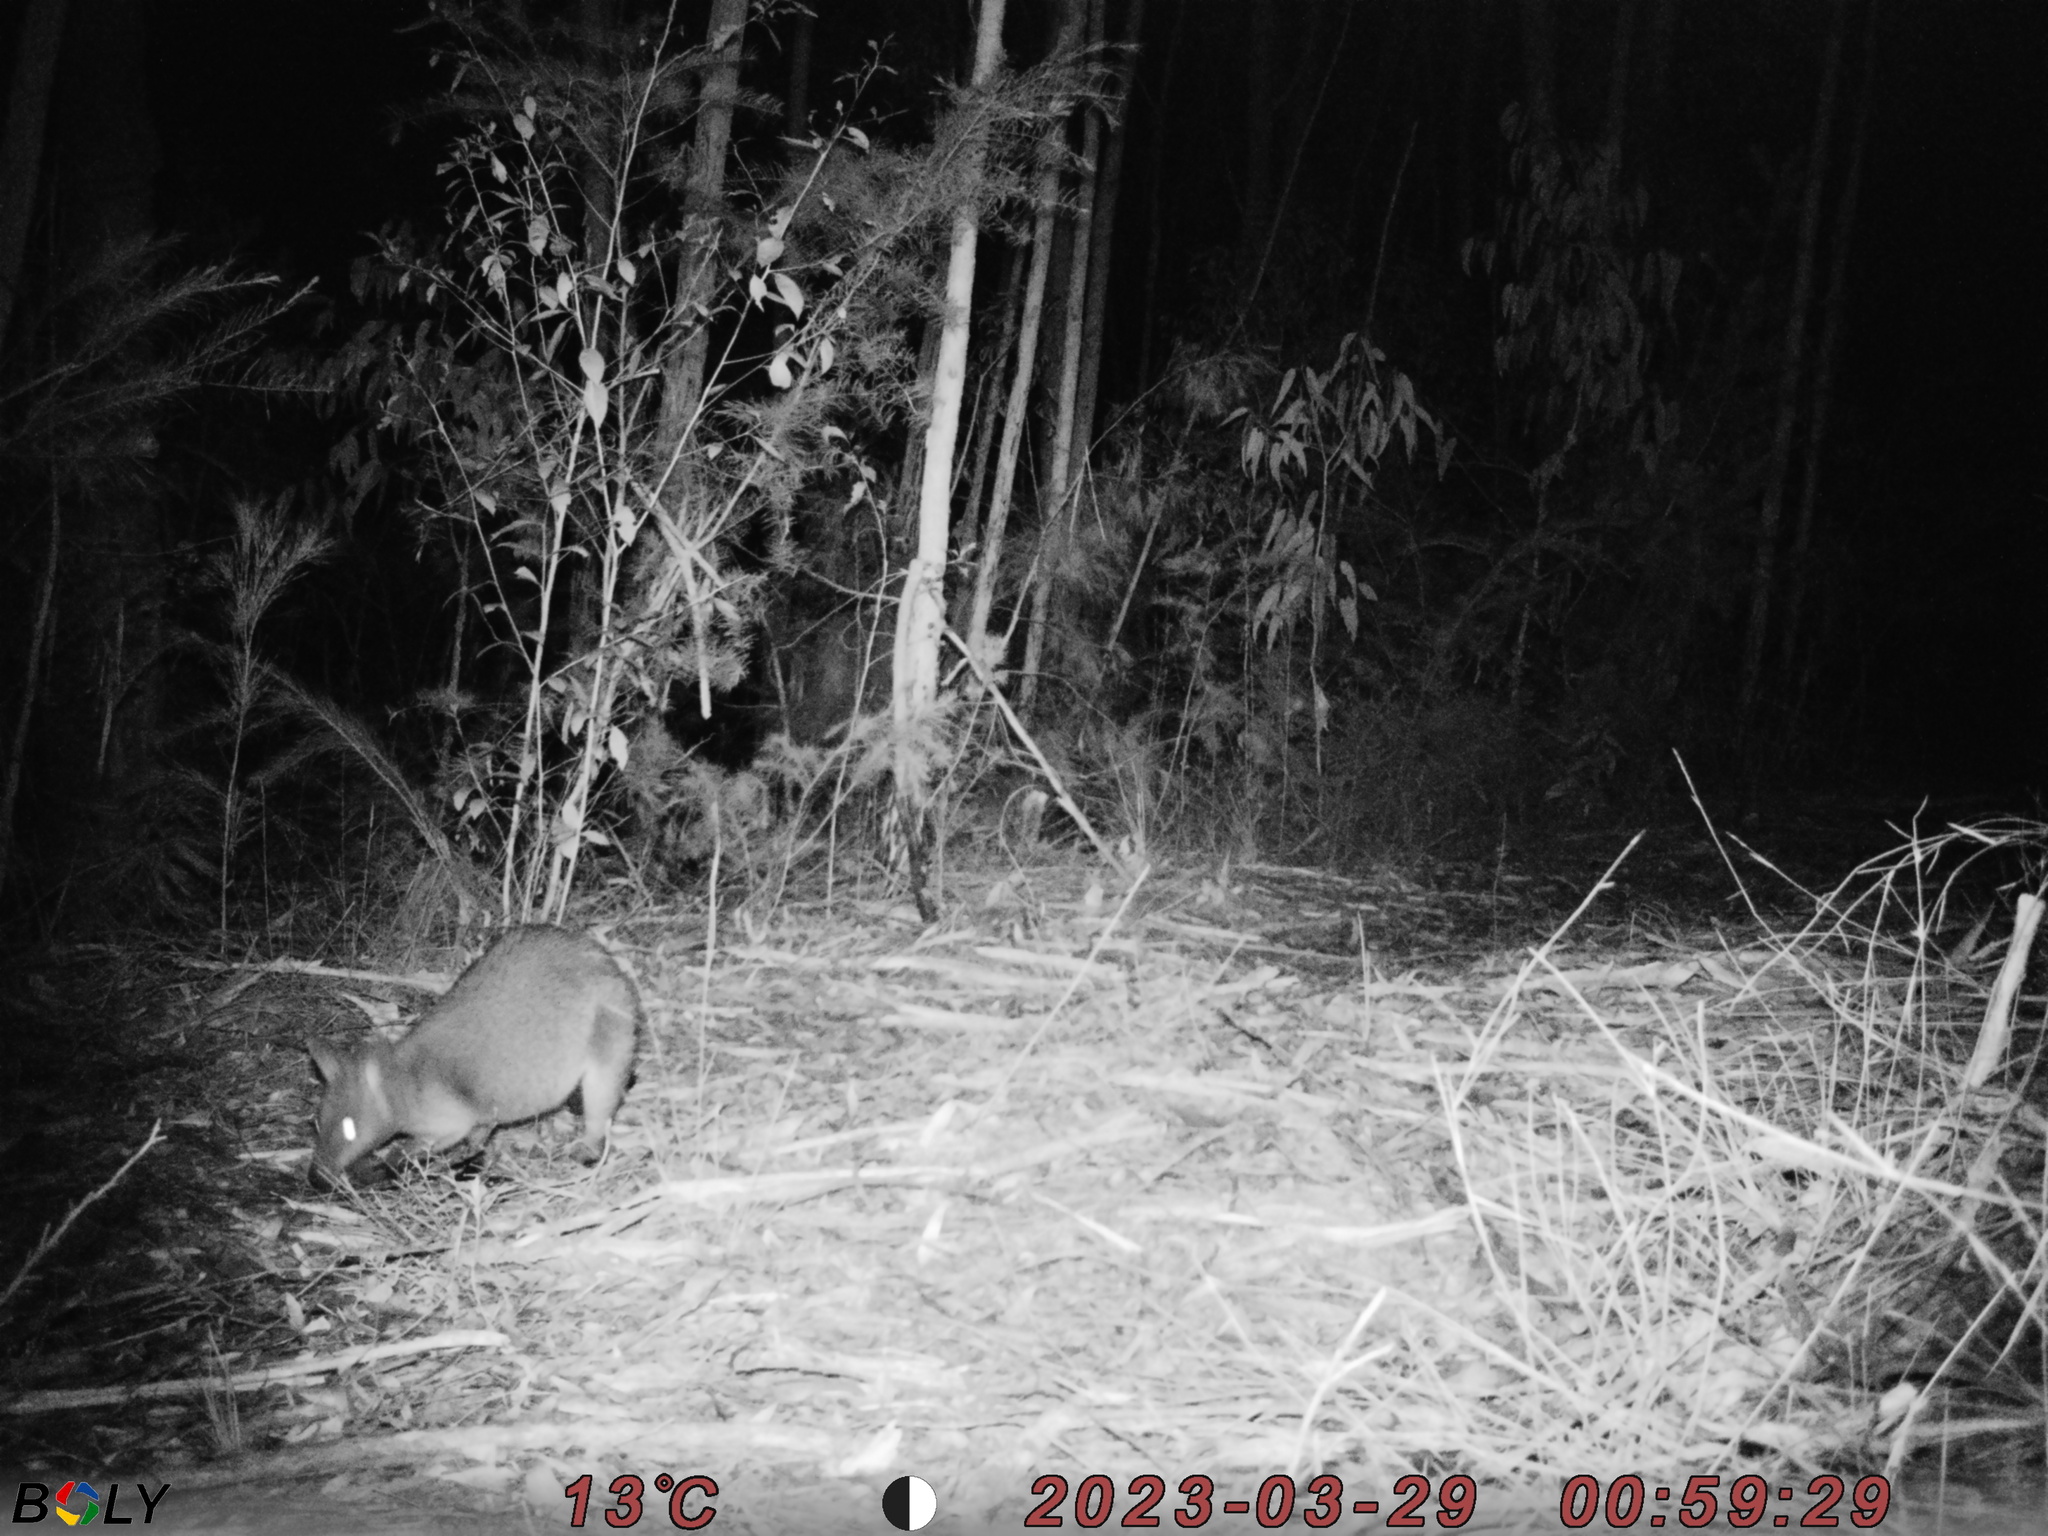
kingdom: Animalia
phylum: Chordata
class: Mammalia
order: Diprotodontia
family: Macropodidae
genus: Wallabia
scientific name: Wallabia bicolor
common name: Swamp wallaby
